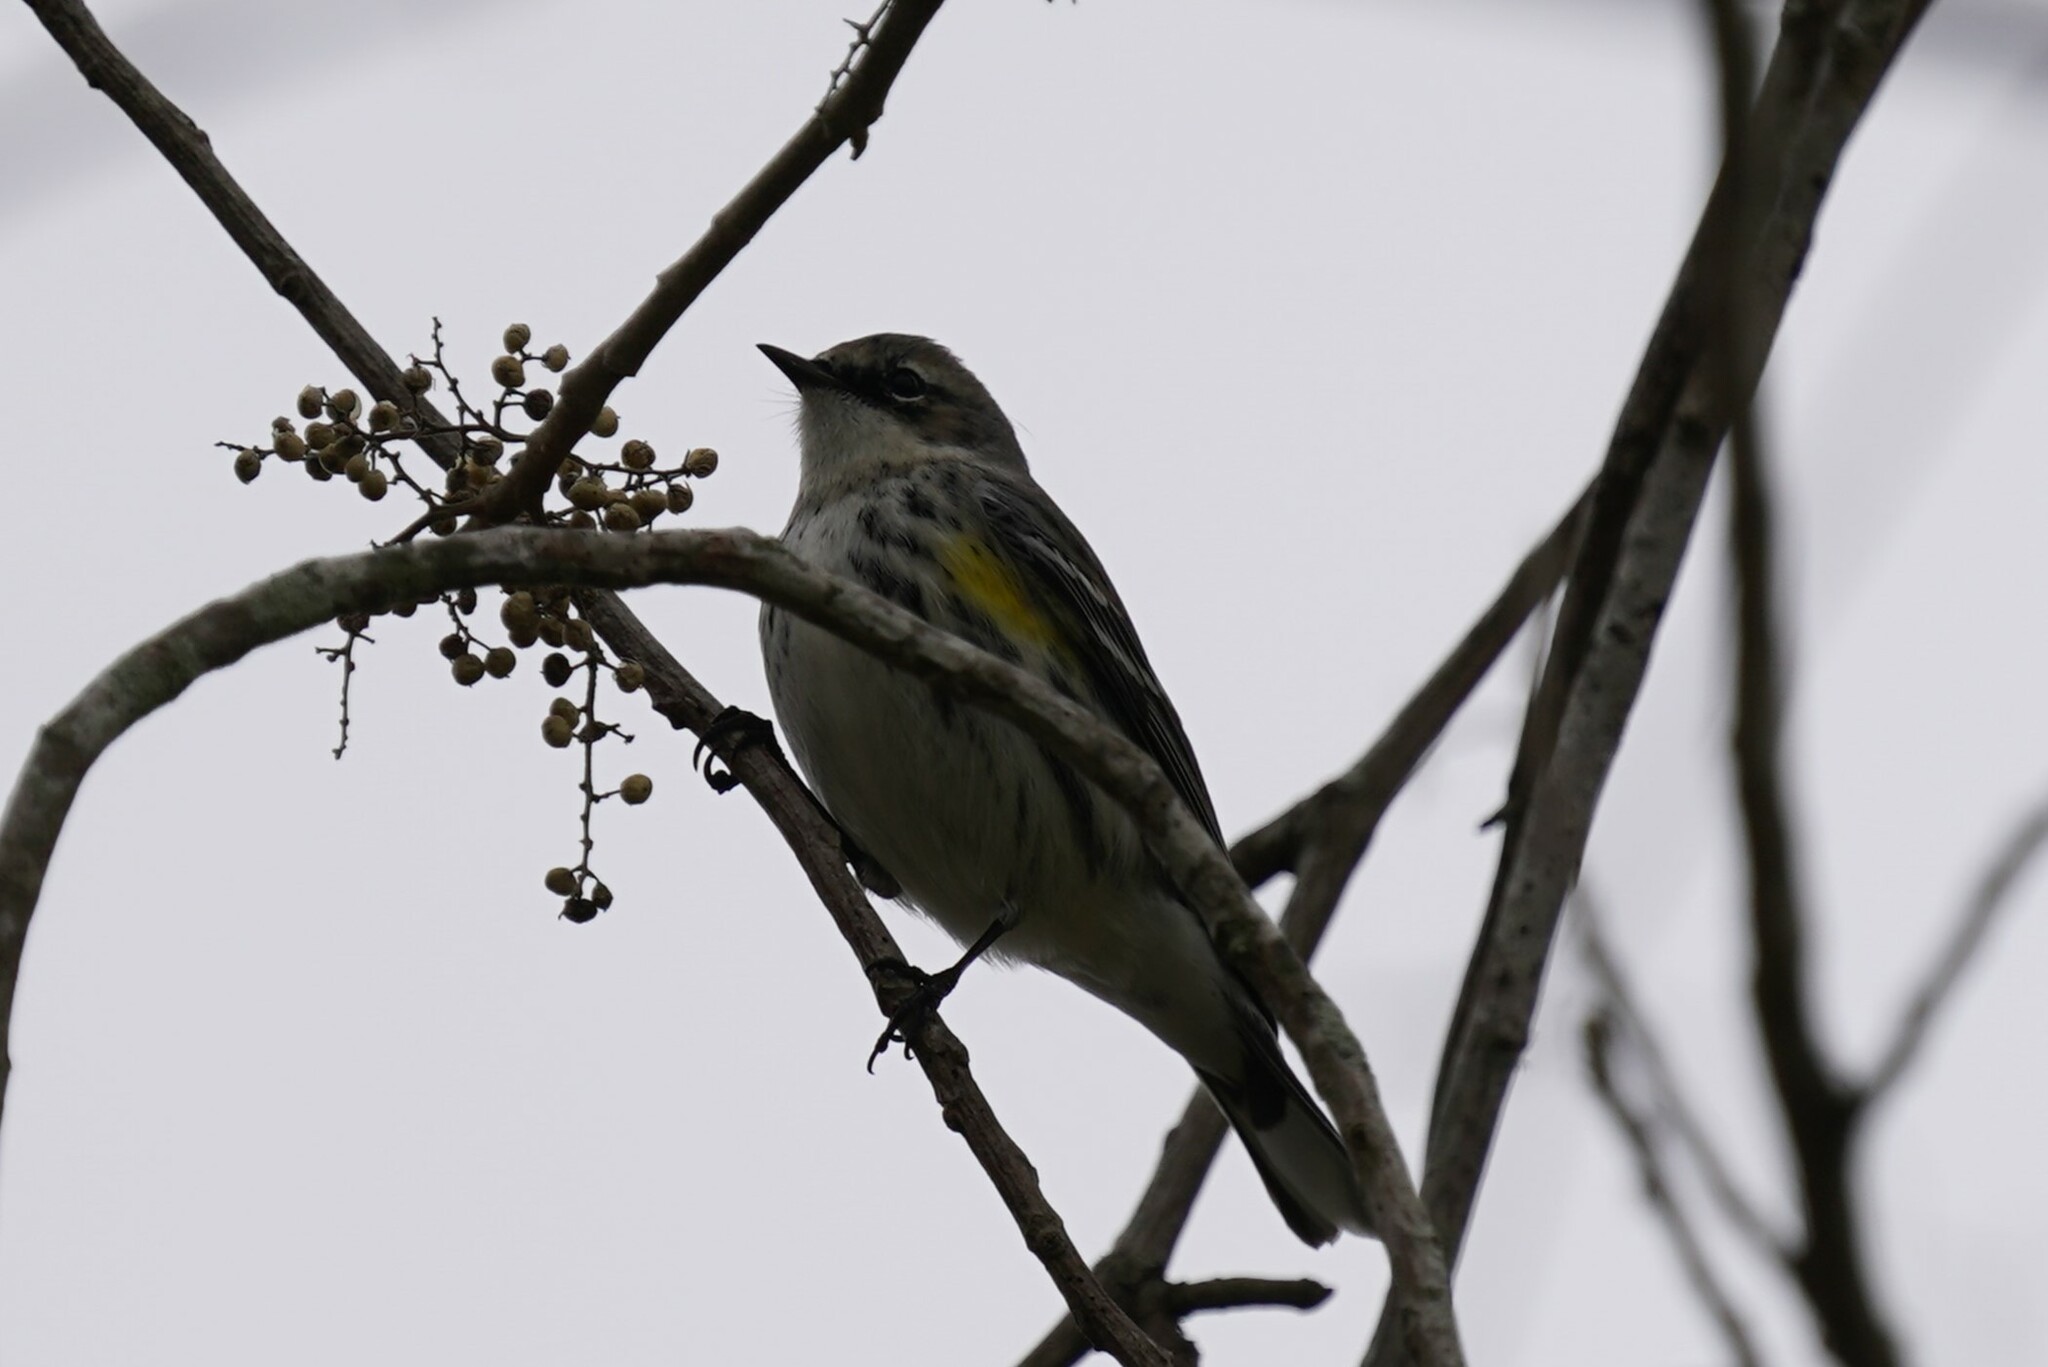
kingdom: Animalia
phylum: Chordata
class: Aves
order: Passeriformes
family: Parulidae
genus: Setophaga
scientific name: Setophaga coronata
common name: Myrtle warbler
